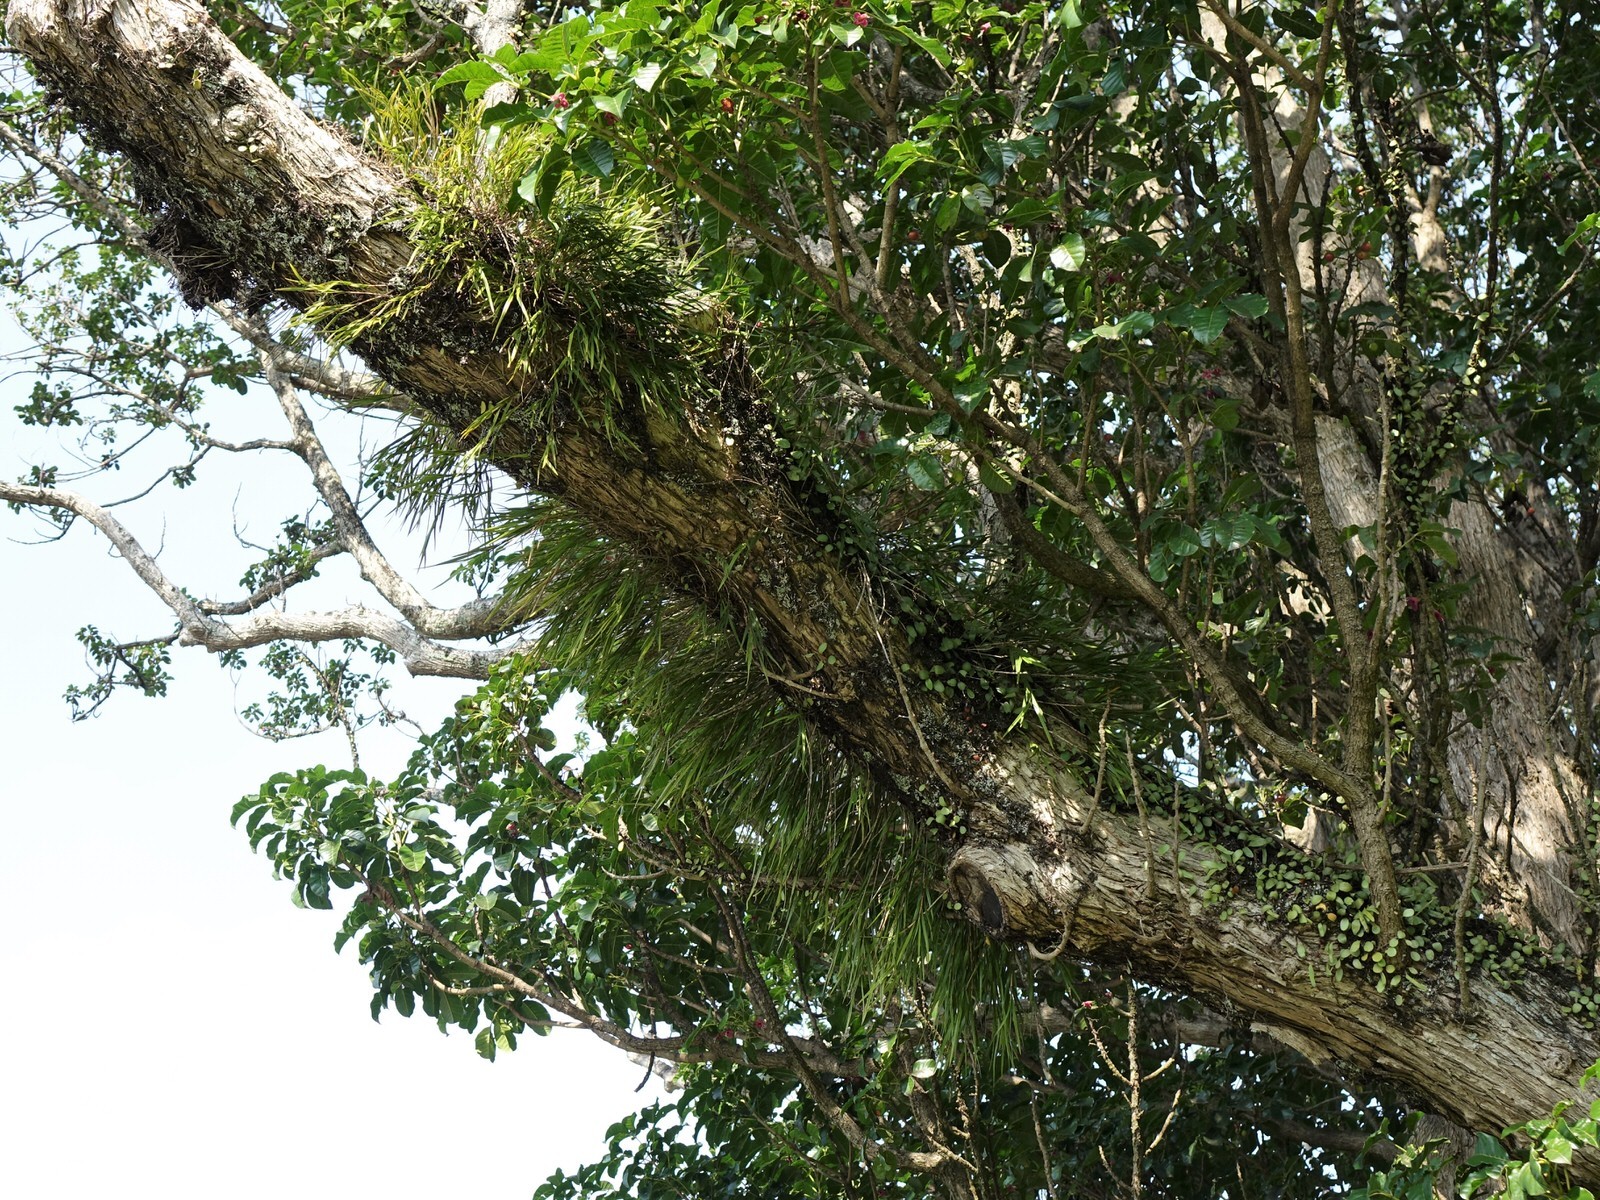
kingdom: Plantae
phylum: Tracheophyta
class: Liliopsida
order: Asparagales
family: Orchidaceae
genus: Earina
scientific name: Earina mucronata
